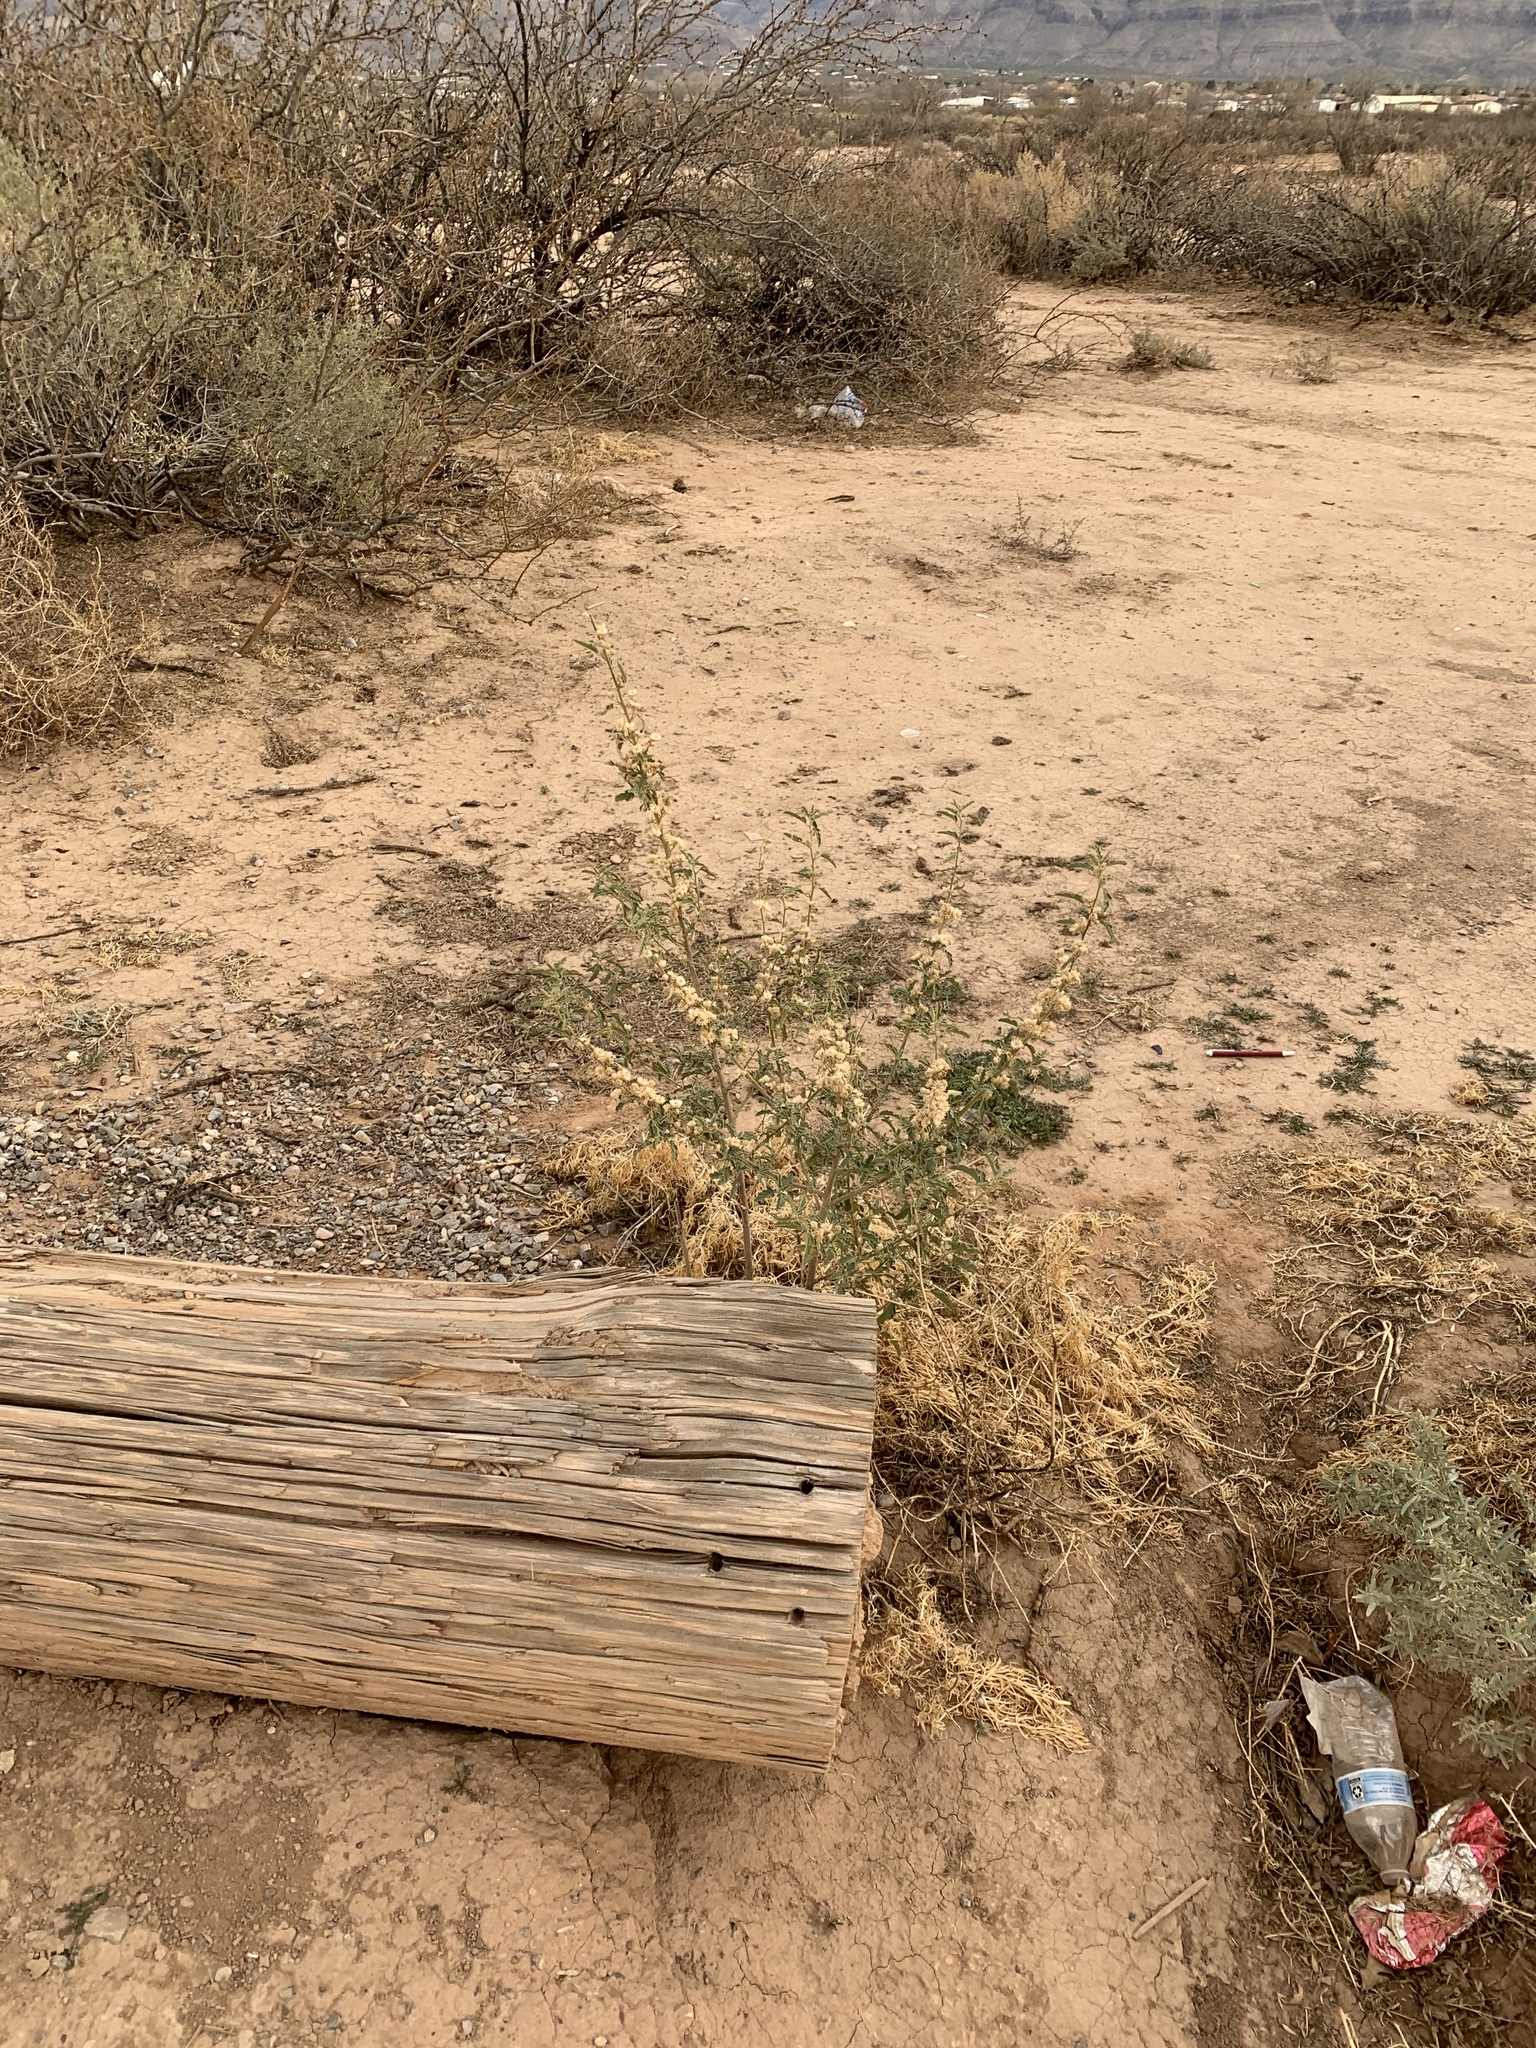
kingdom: Plantae
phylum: Tracheophyta
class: Magnoliopsida
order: Malvales
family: Malvaceae
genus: Sphaeralcea
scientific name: Sphaeralcea angustifolia
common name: Copper globe-mallow
